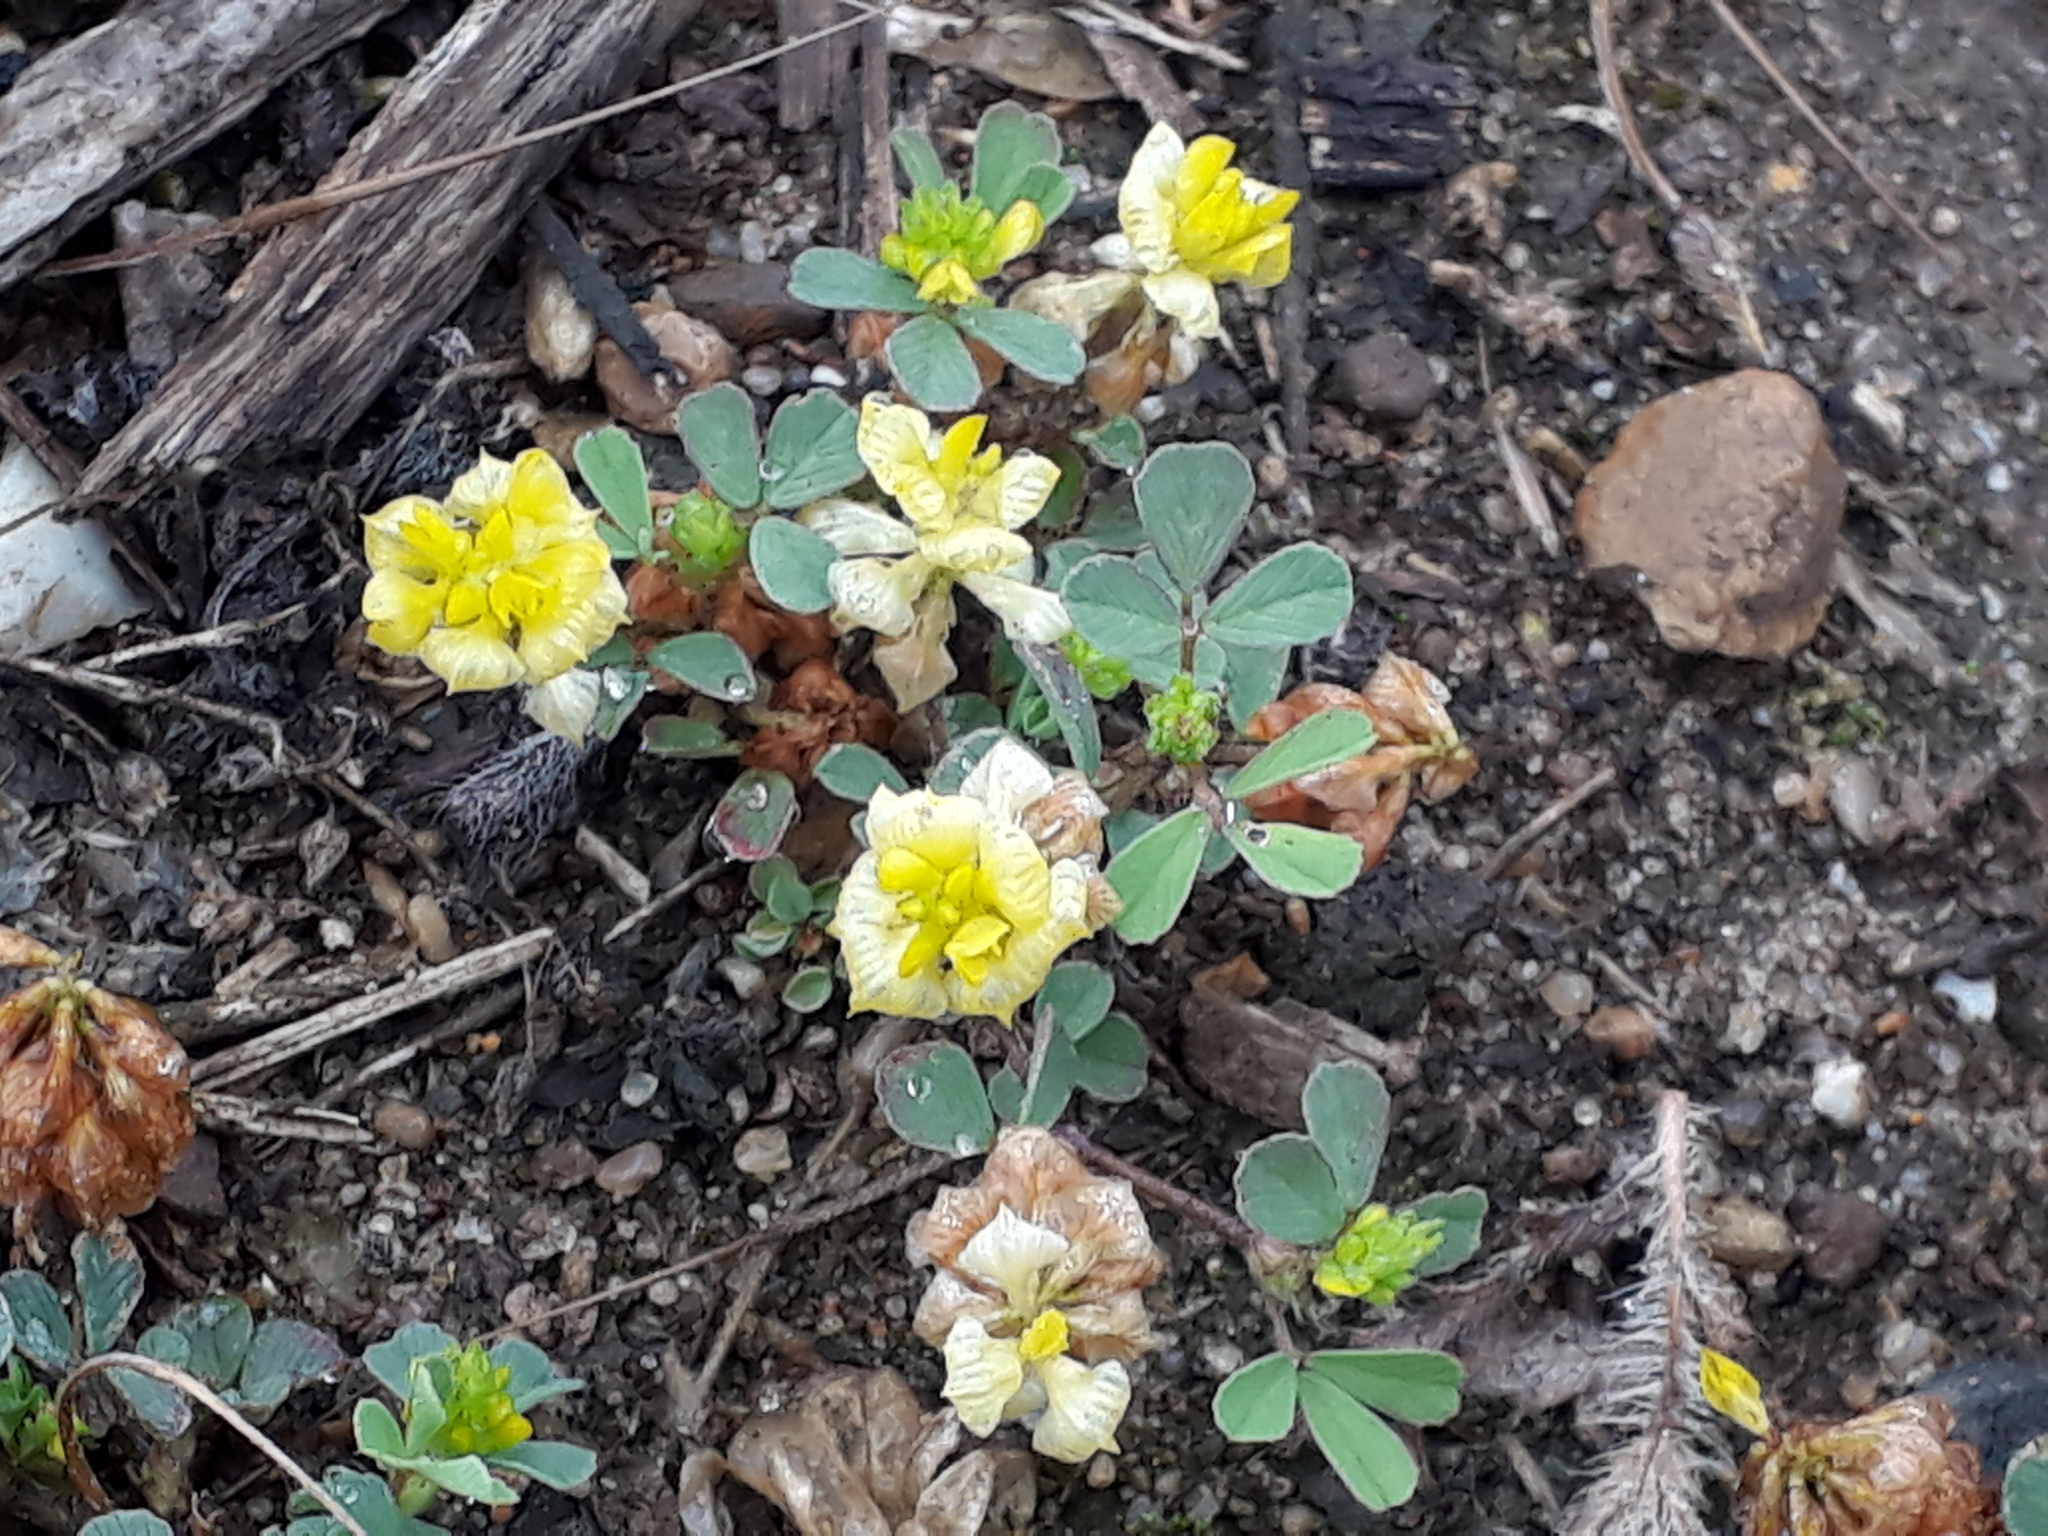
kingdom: Plantae
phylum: Tracheophyta
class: Magnoliopsida
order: Fabales
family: Fabaceae
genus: Trifolium
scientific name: Trifolium campestre
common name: Field clover
